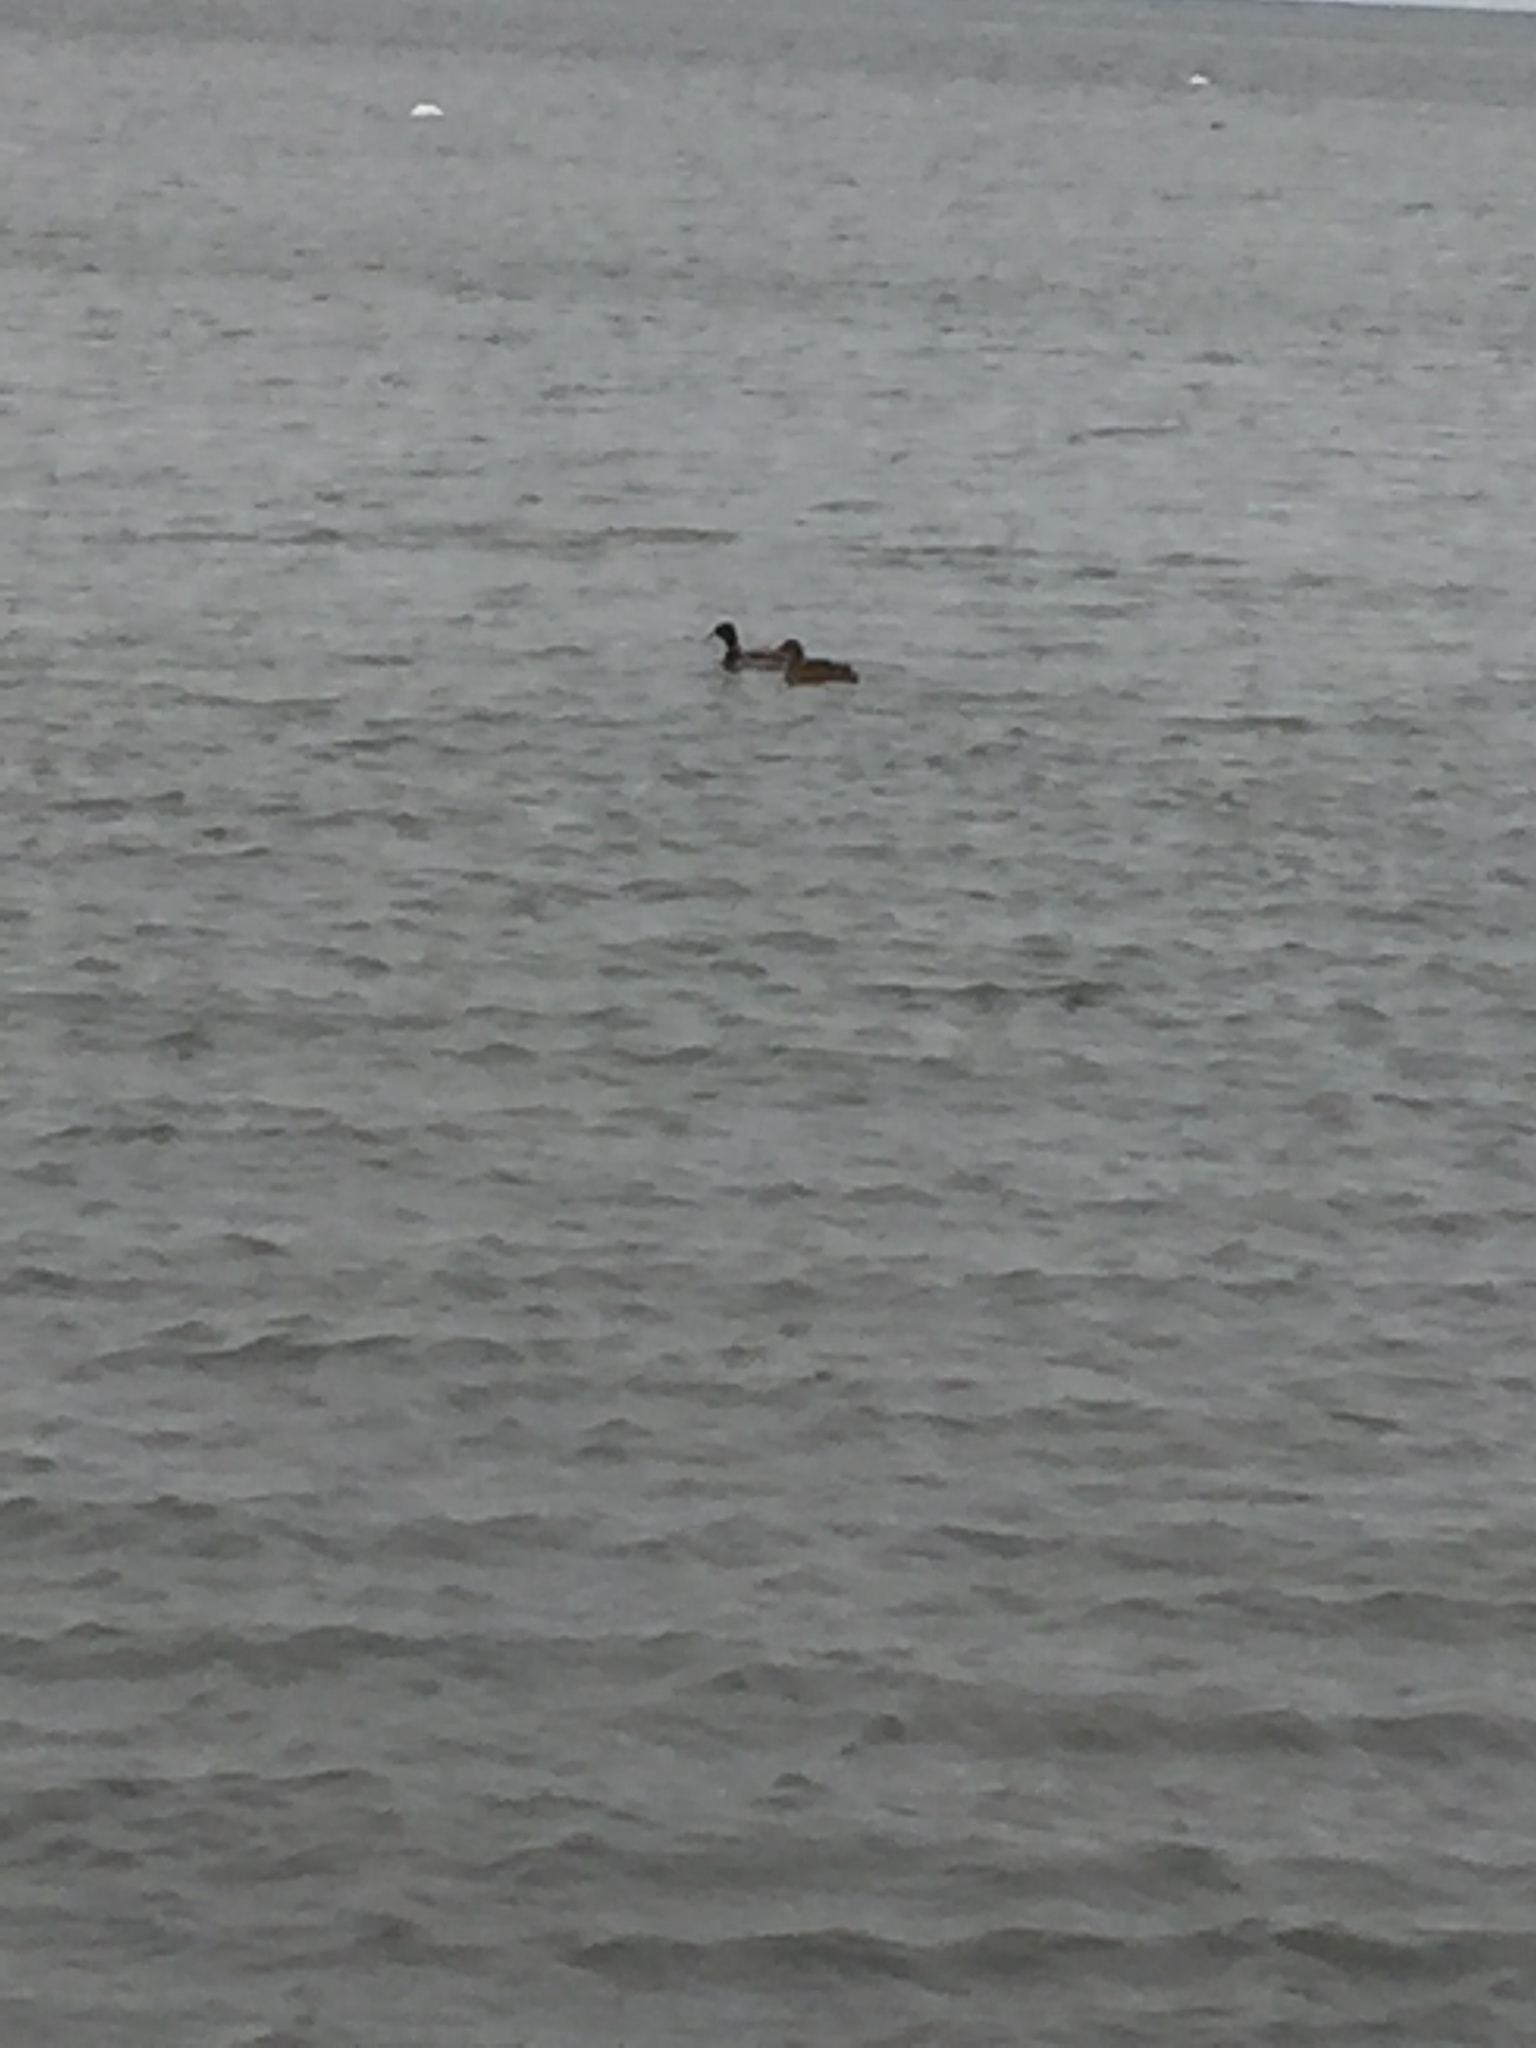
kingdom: Animalia
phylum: Chordata
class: Aves
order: Anseriformes
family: Anatidae
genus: Anas
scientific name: Anas platyrhynchos
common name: Mallard
